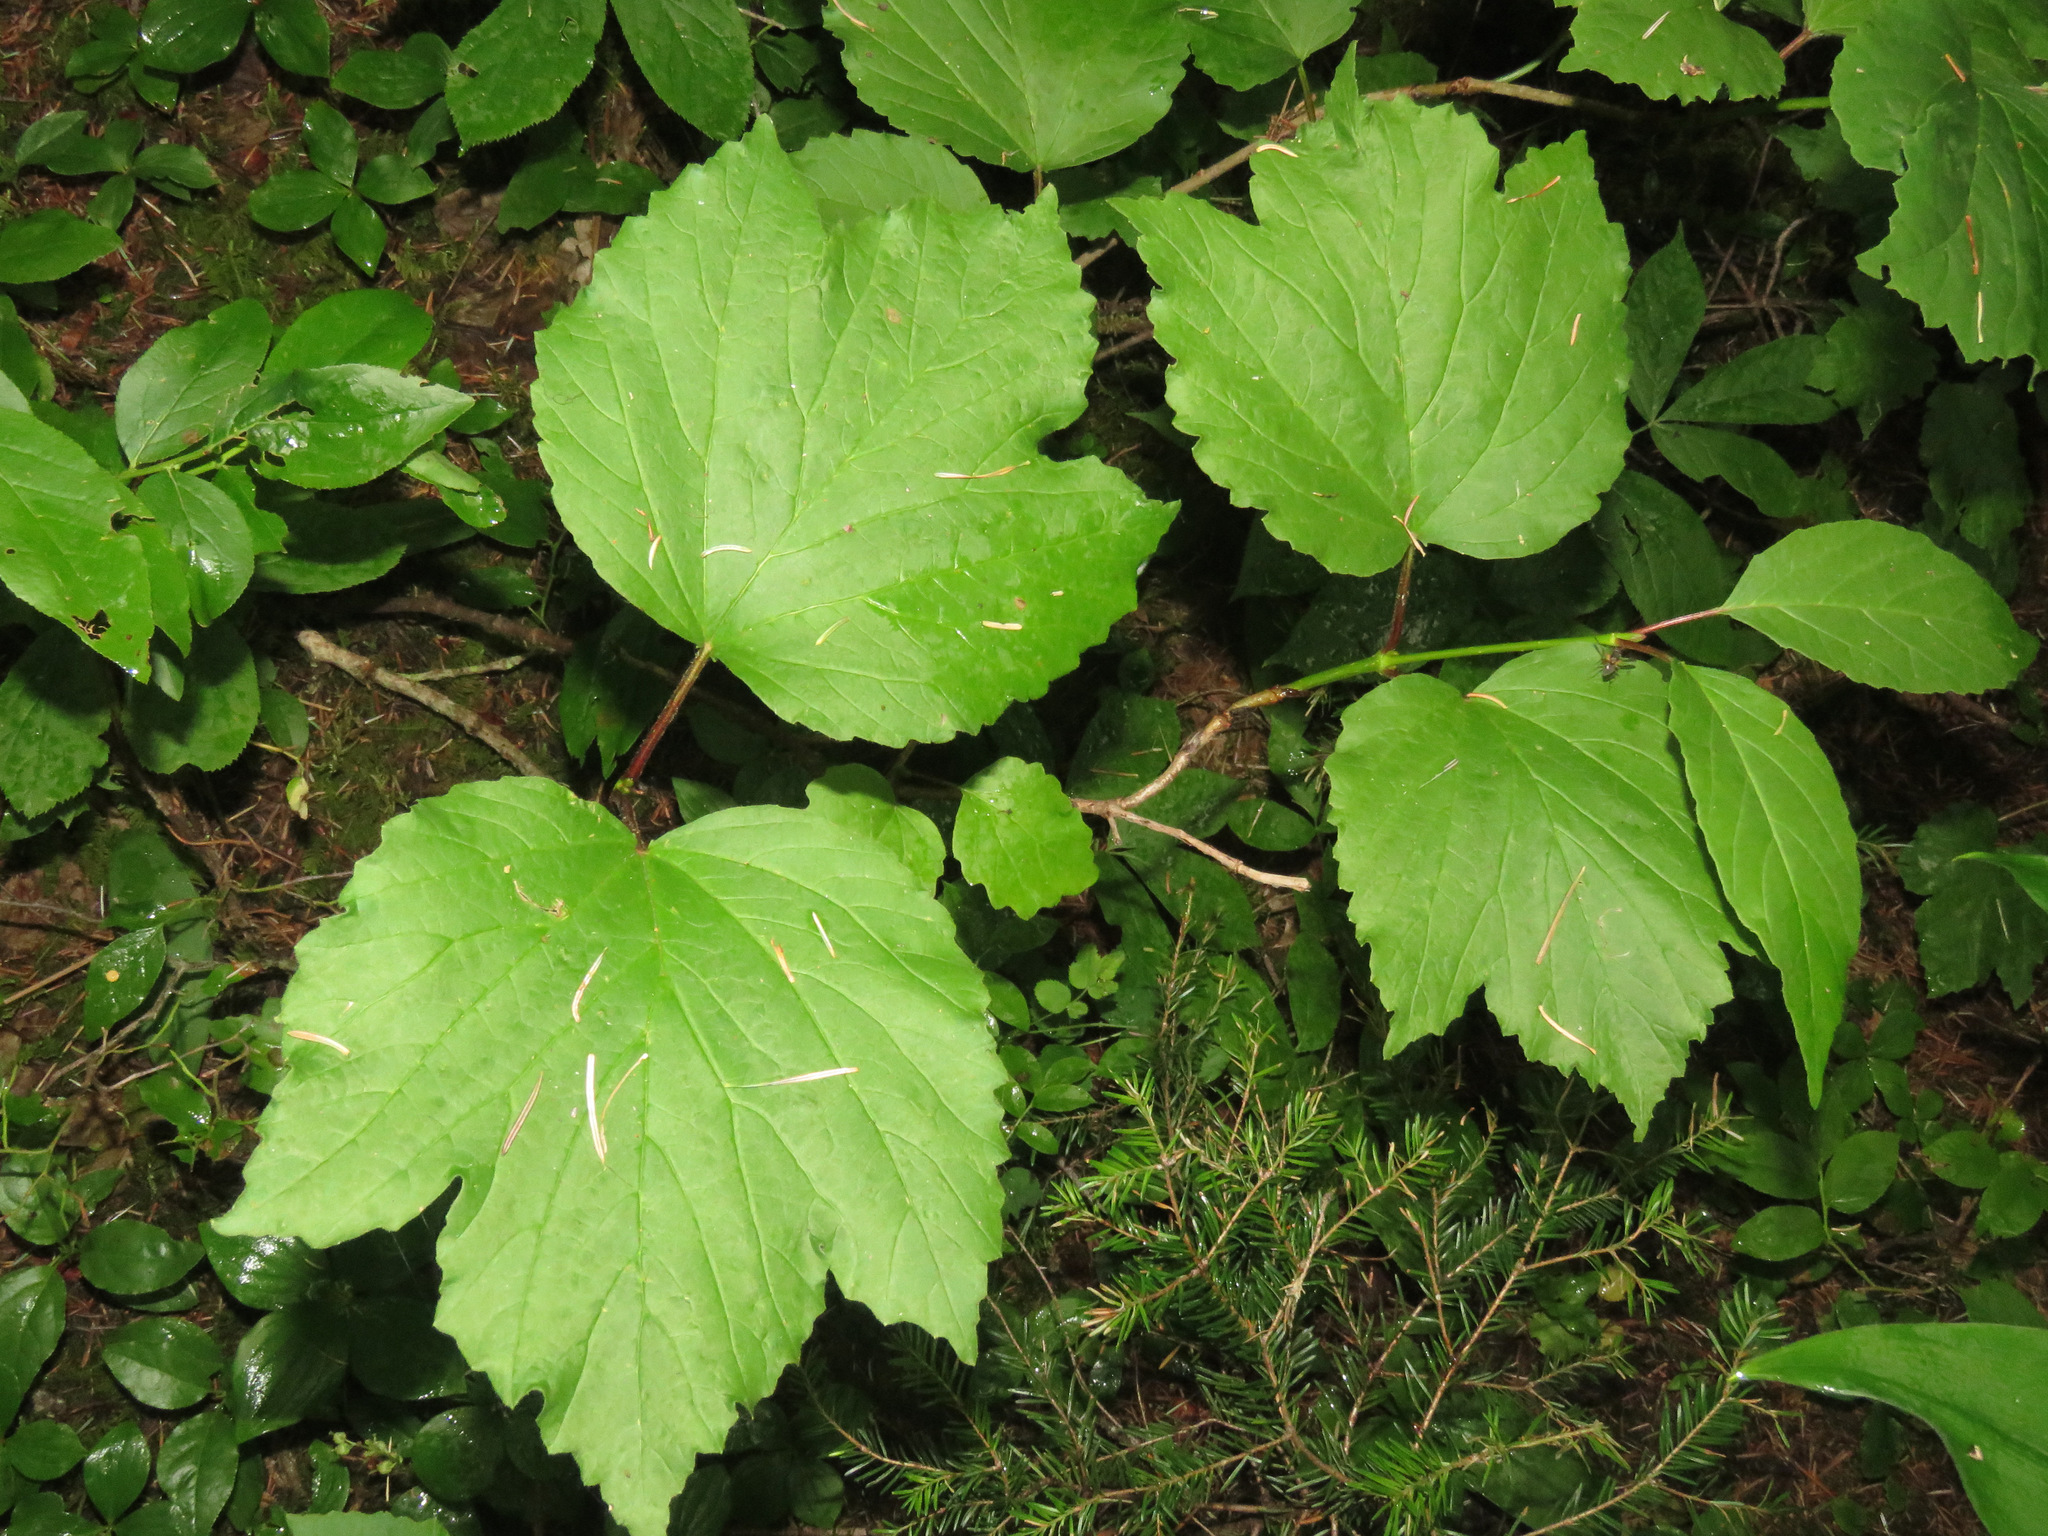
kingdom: Plantae
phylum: Tracheophyta
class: Magnoliopsida
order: Dipsacales
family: Viburnaceae
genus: Viburnum
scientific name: Viburnum edule
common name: Mooseberry
